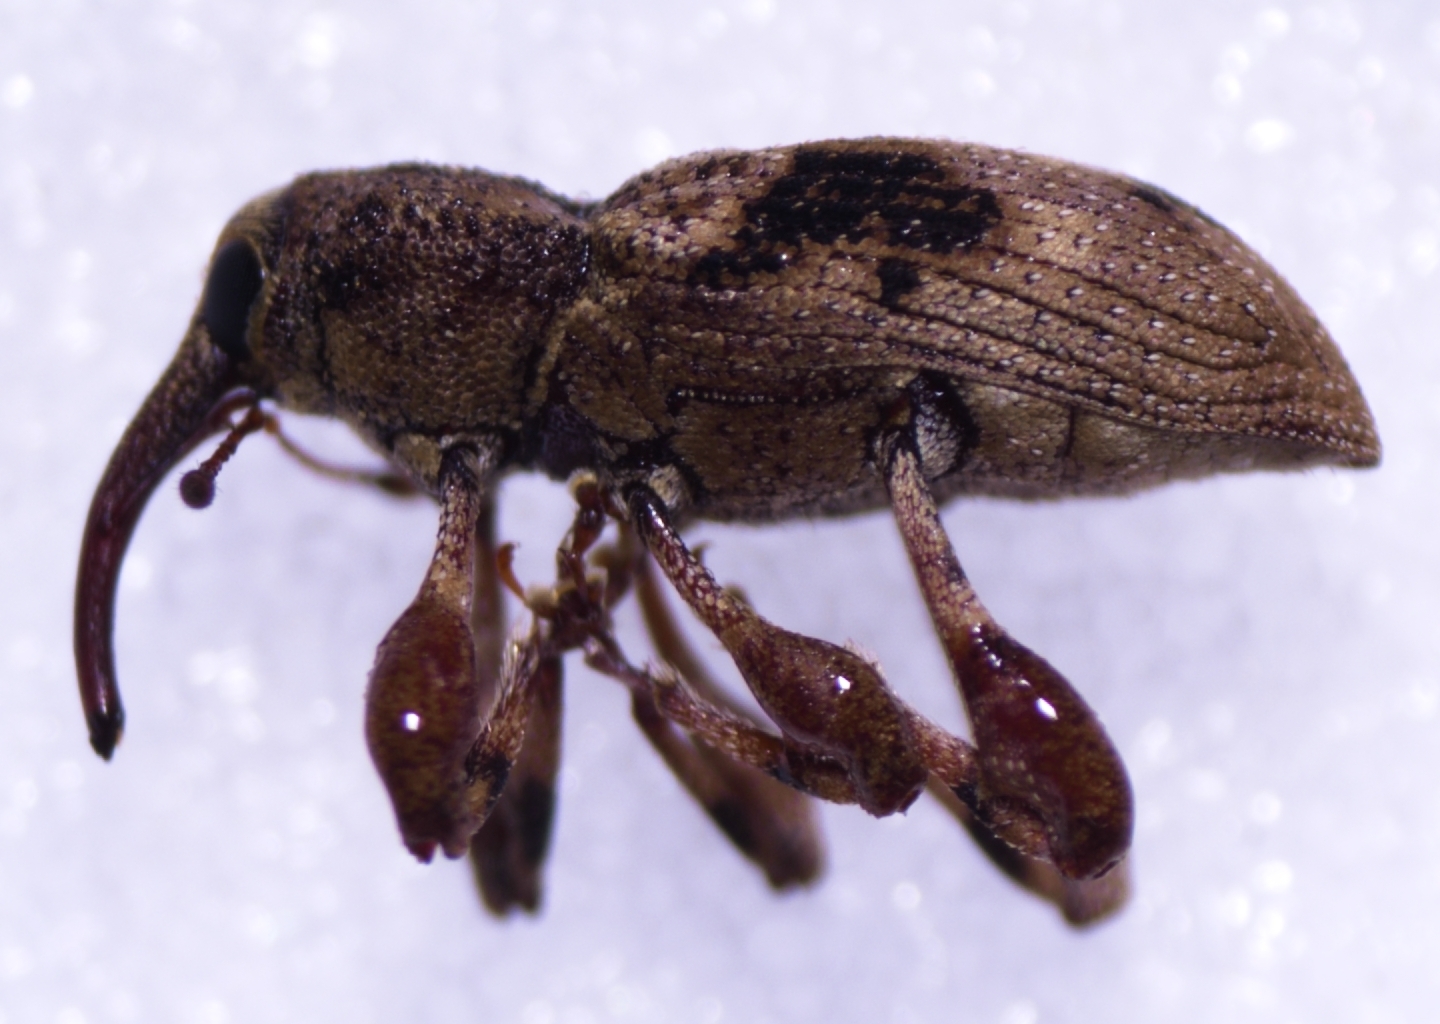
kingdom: Animalia
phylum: Arthropoda
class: Insecta
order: Coleoptera
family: Curculionidae
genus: Acicnemis
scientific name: Acicnemis variegata
